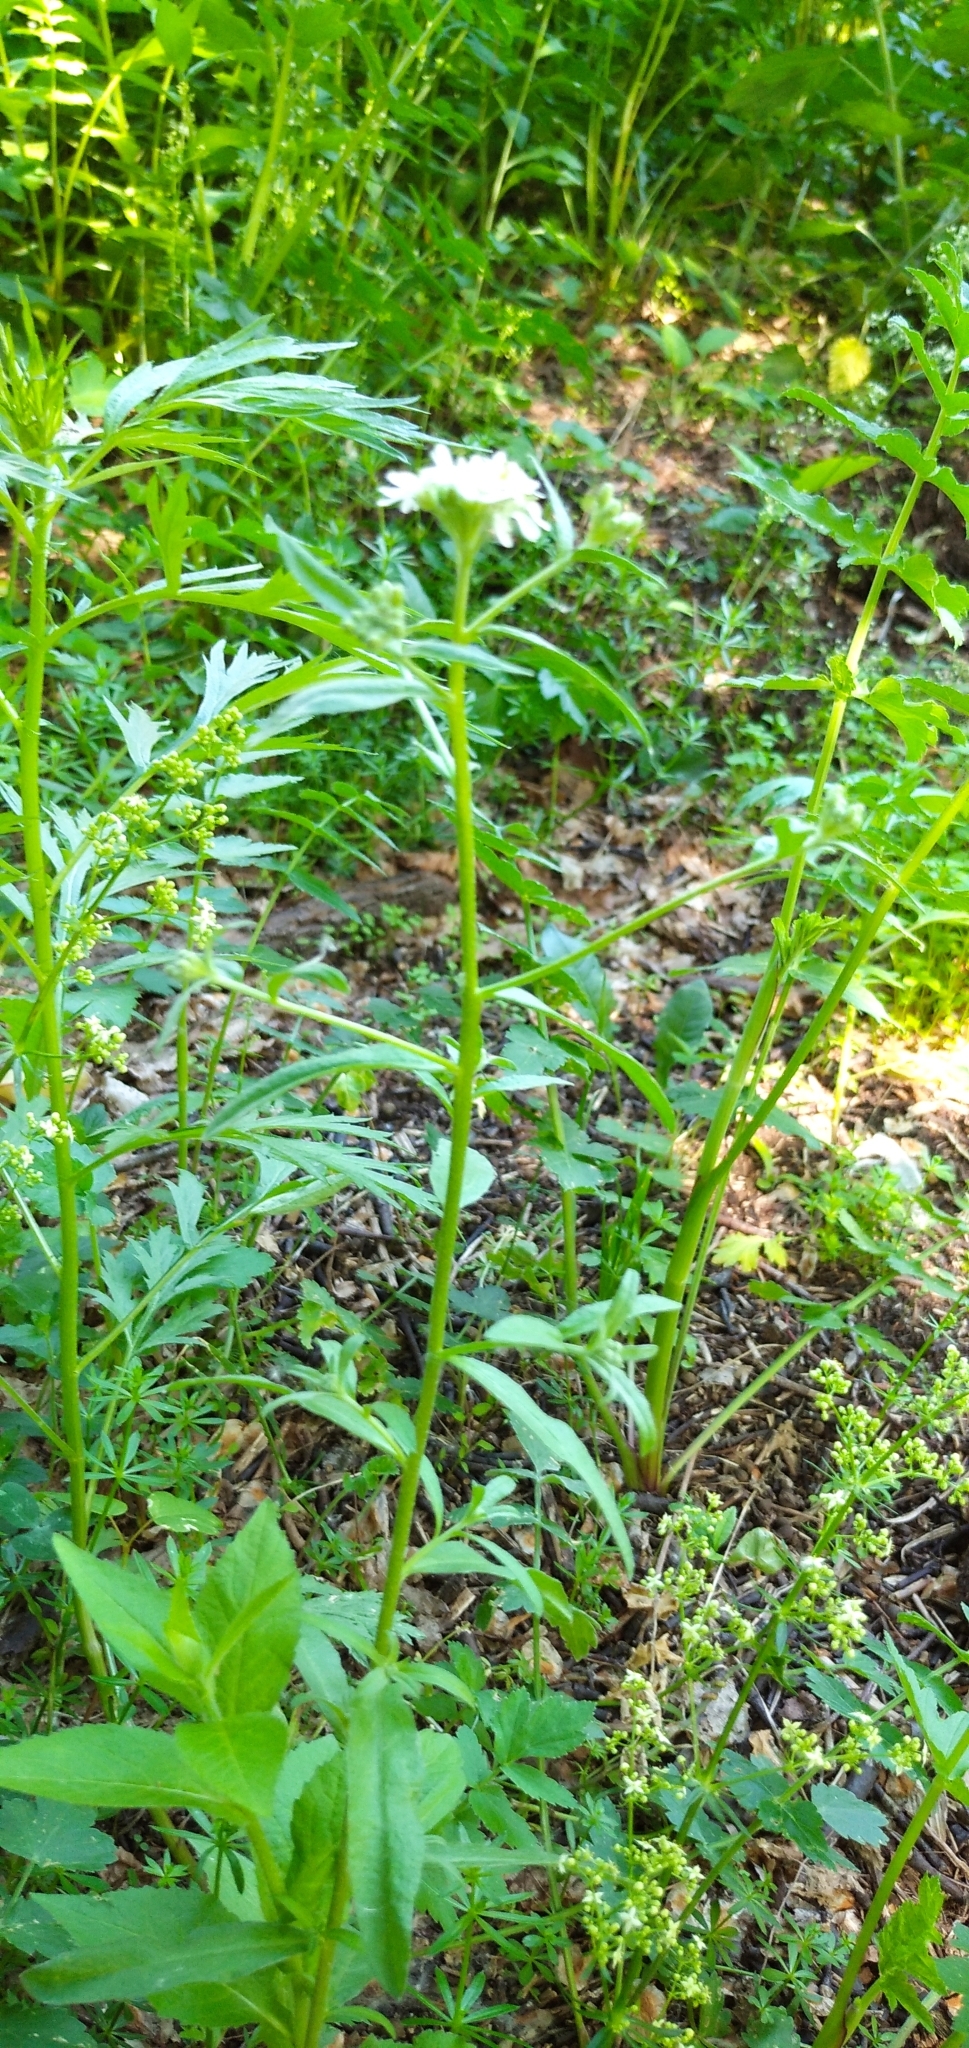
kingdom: Plantae
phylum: Tracheophyta
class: Magnoliopsida
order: Brassicales
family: Brassicaceae
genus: Berteroa
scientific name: Berteroa incana
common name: Hoary alison
